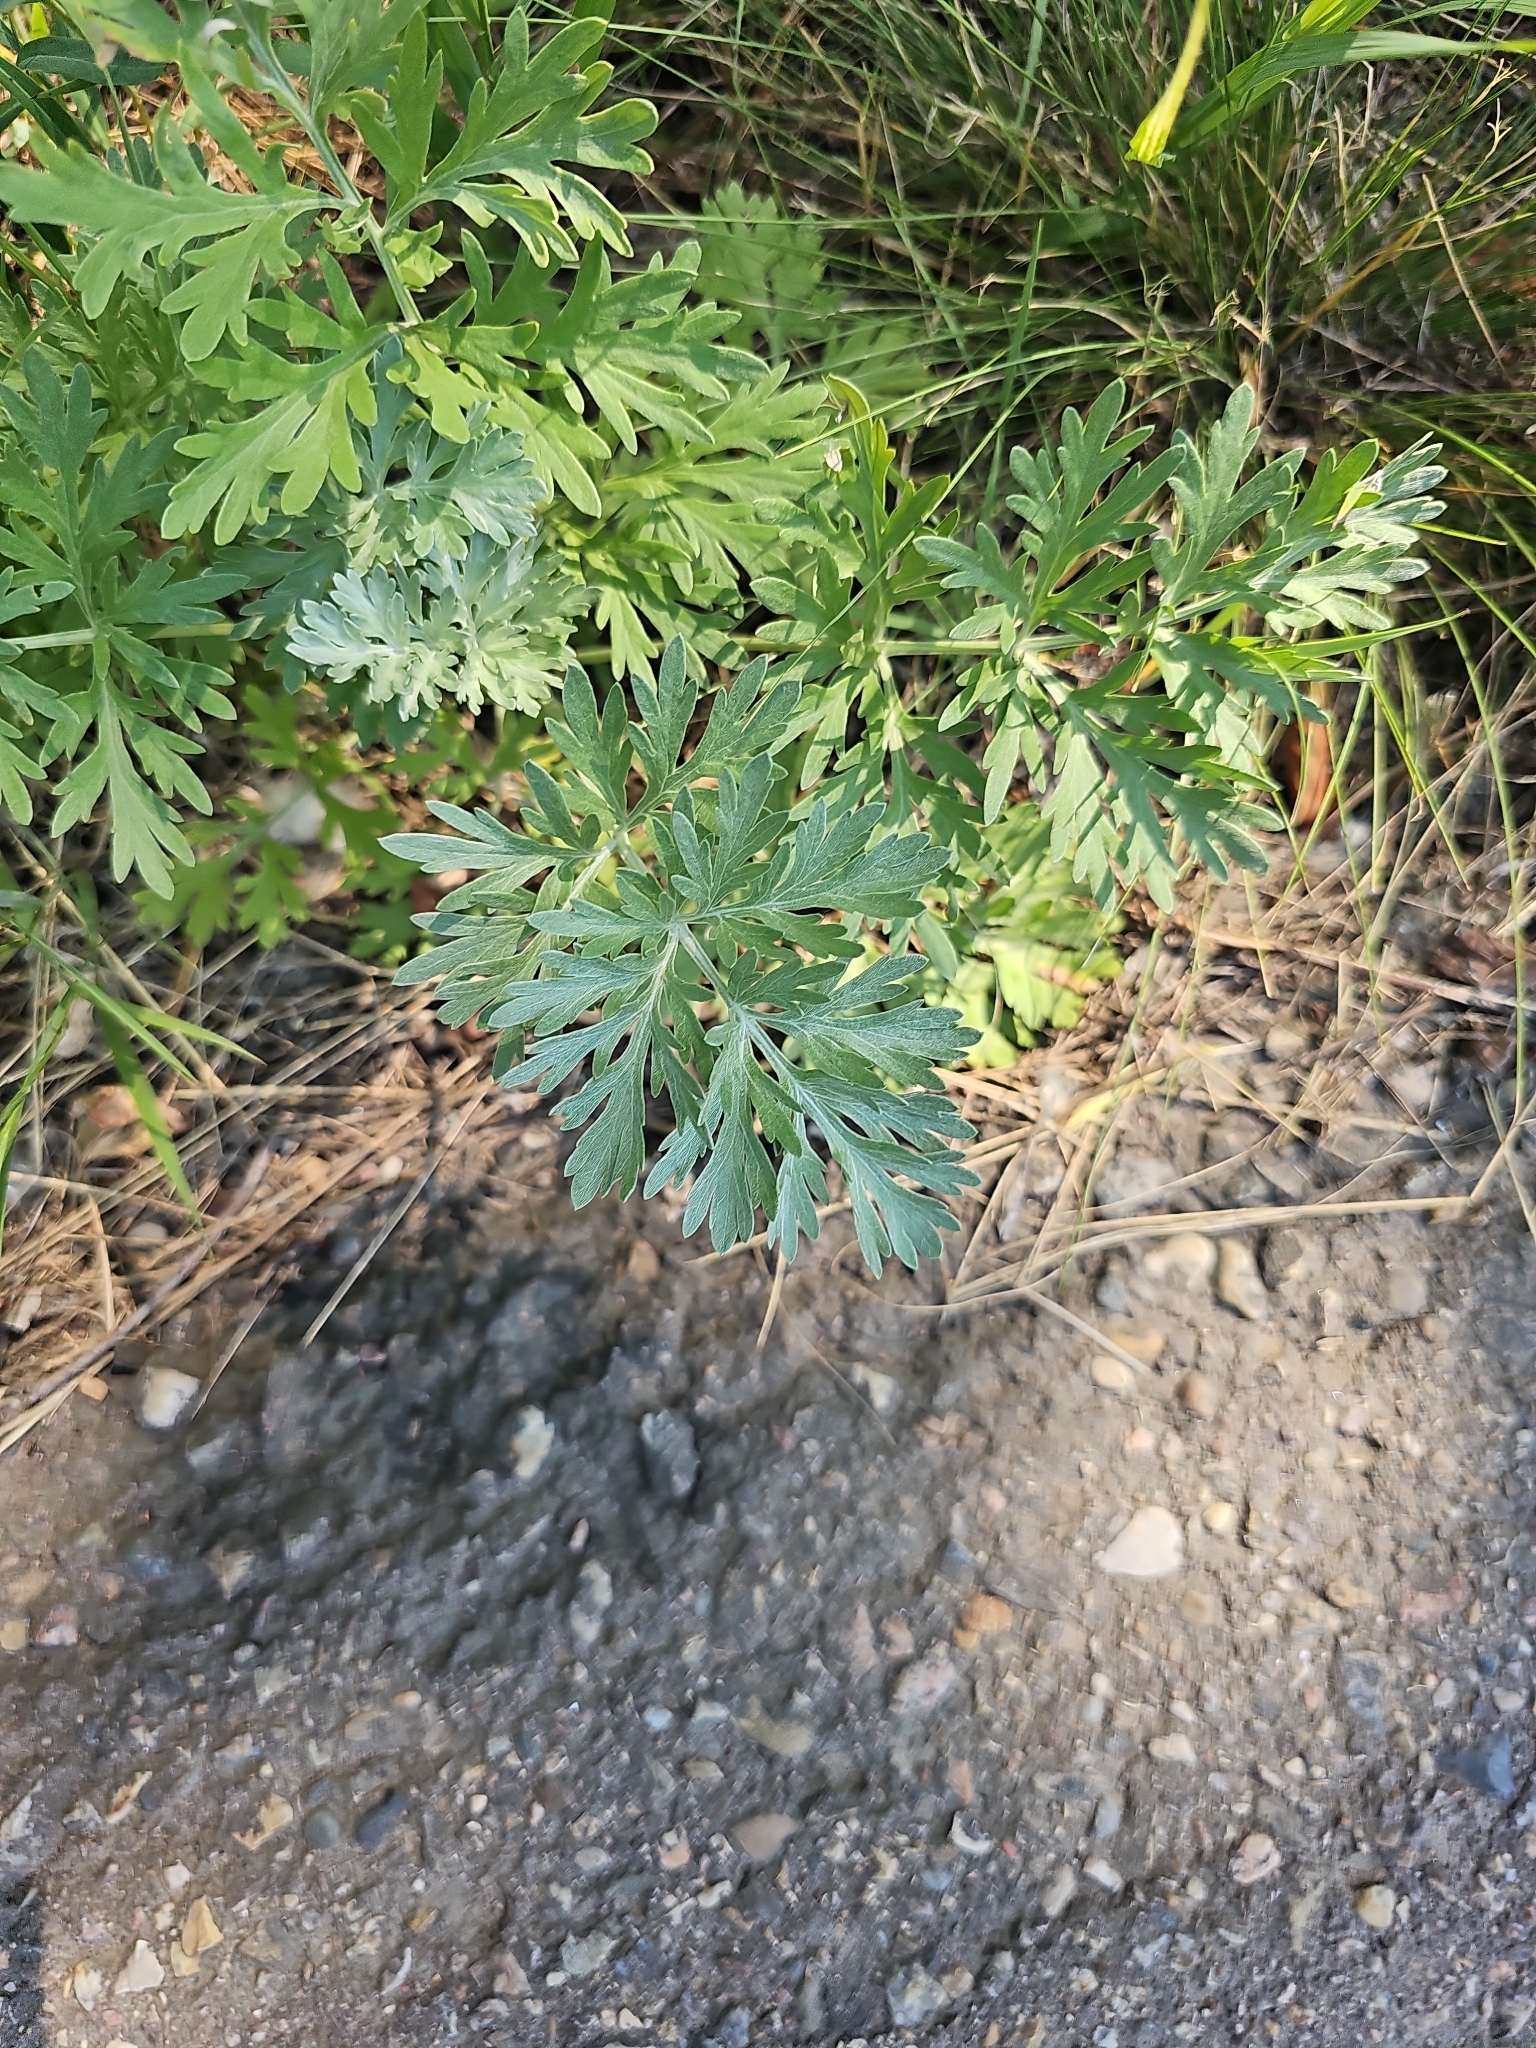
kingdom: Plantae
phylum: Tracheophyta
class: Magnoliopsida
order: Asterales
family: Asteraceae
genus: Artemisia
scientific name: Artemisia absinthium
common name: Wormwood
